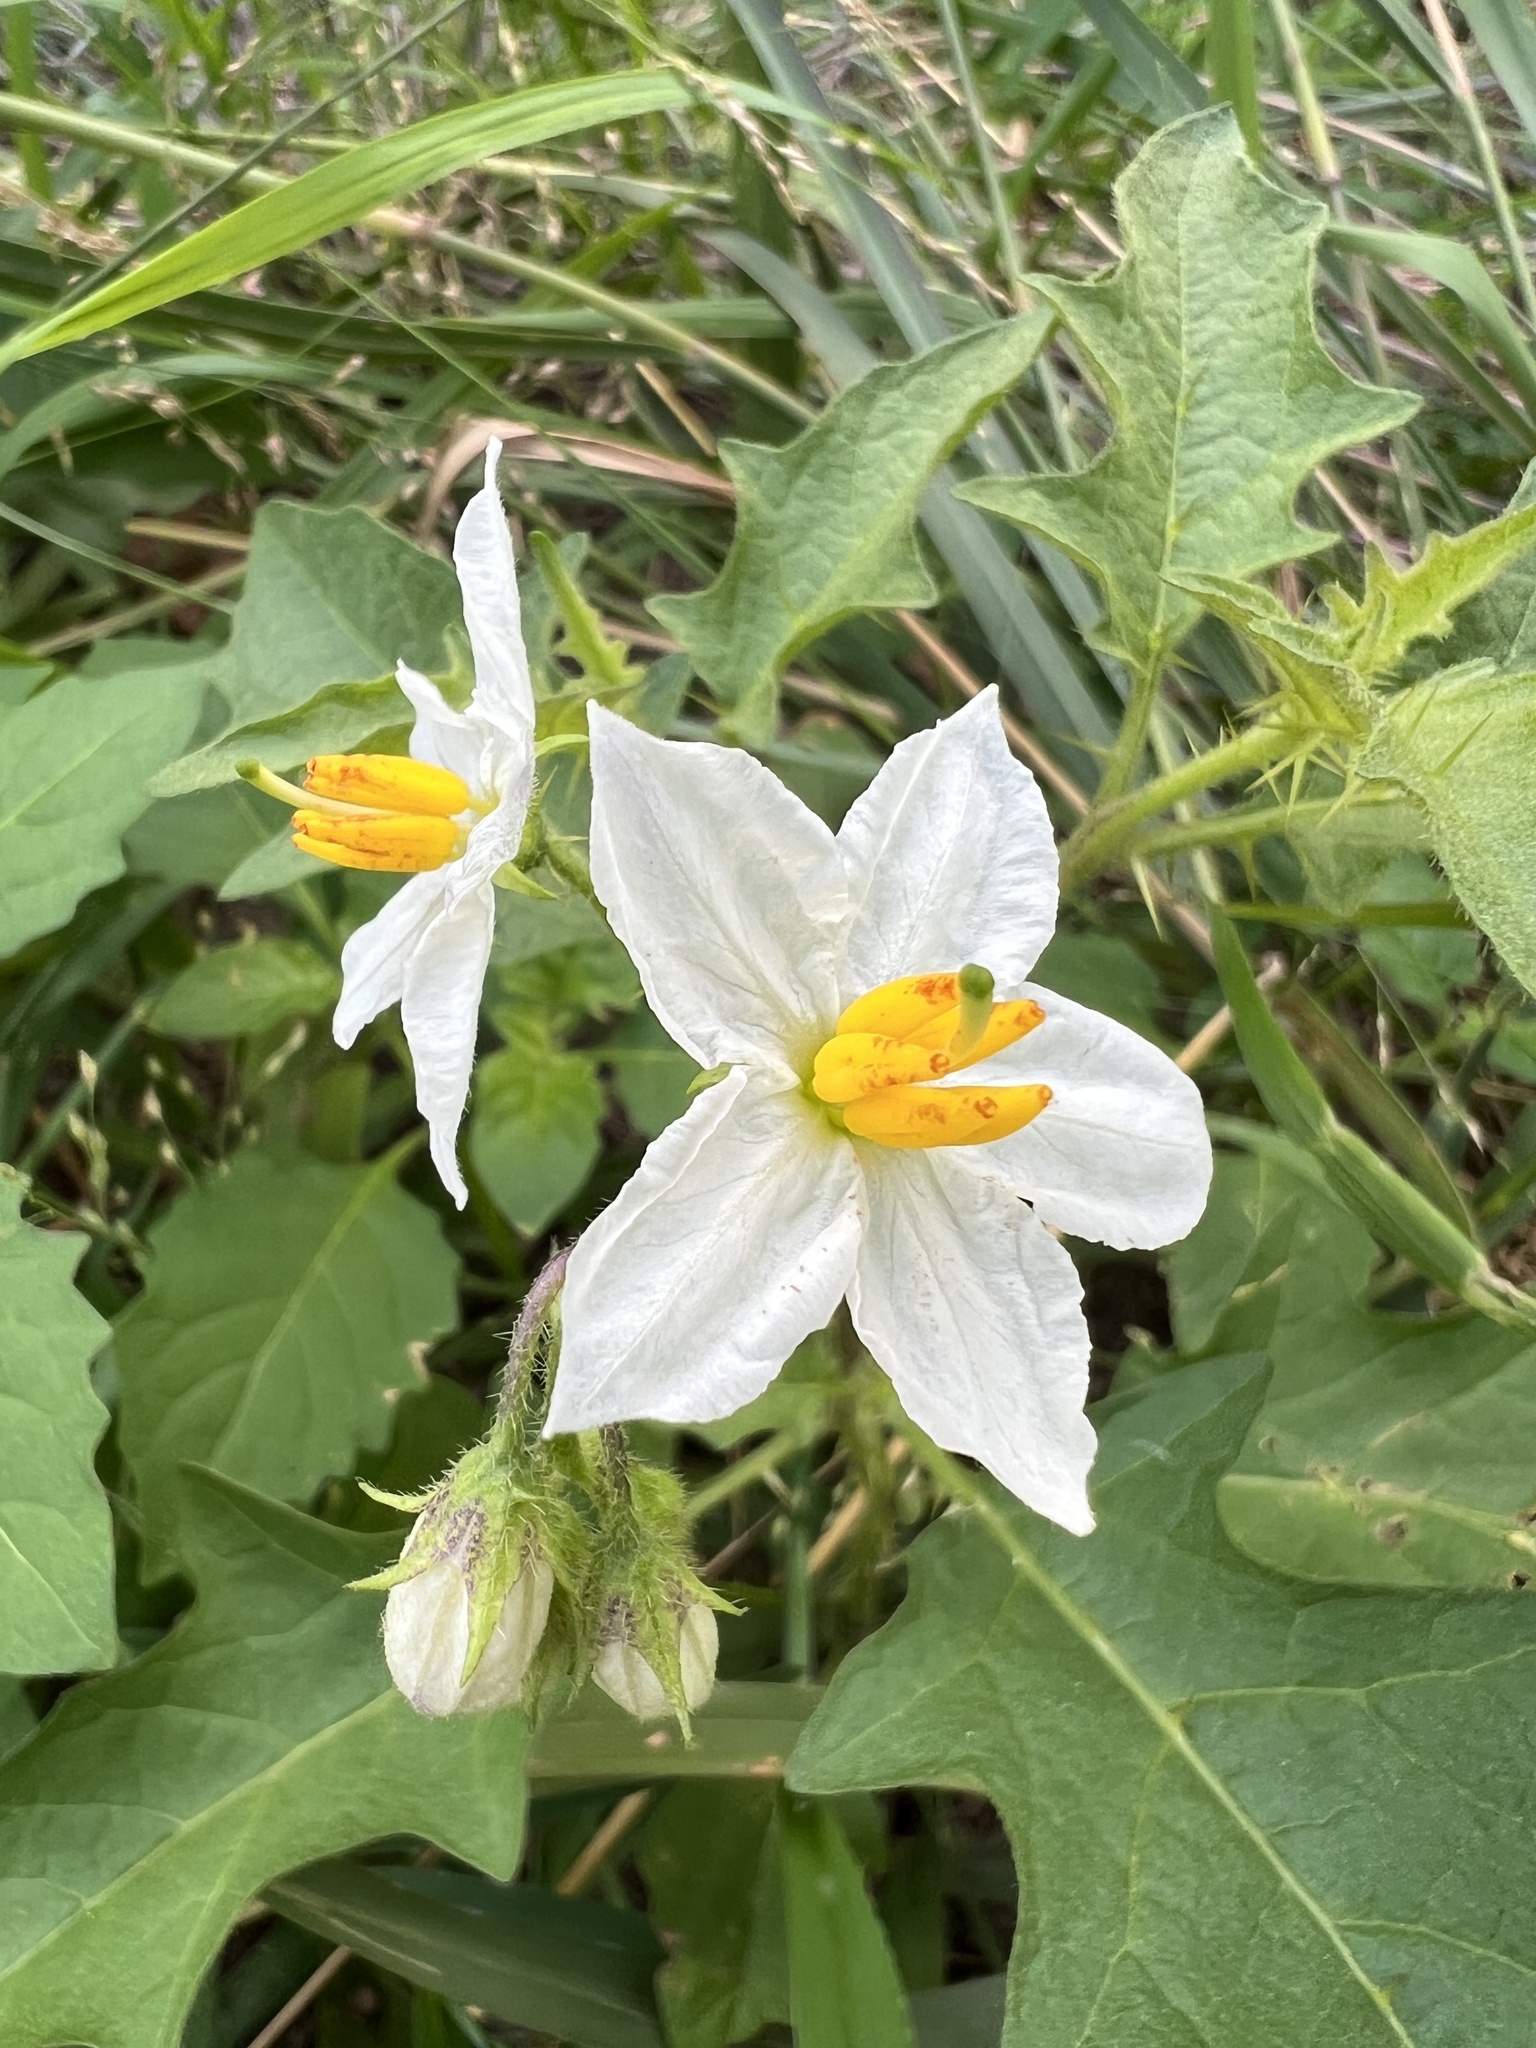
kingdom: Plantae
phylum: Tracheophyta
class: Magnoliopsida
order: Solanales
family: Solanaceae
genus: Solanum
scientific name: Solanum carolinense
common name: Horse-nettle
